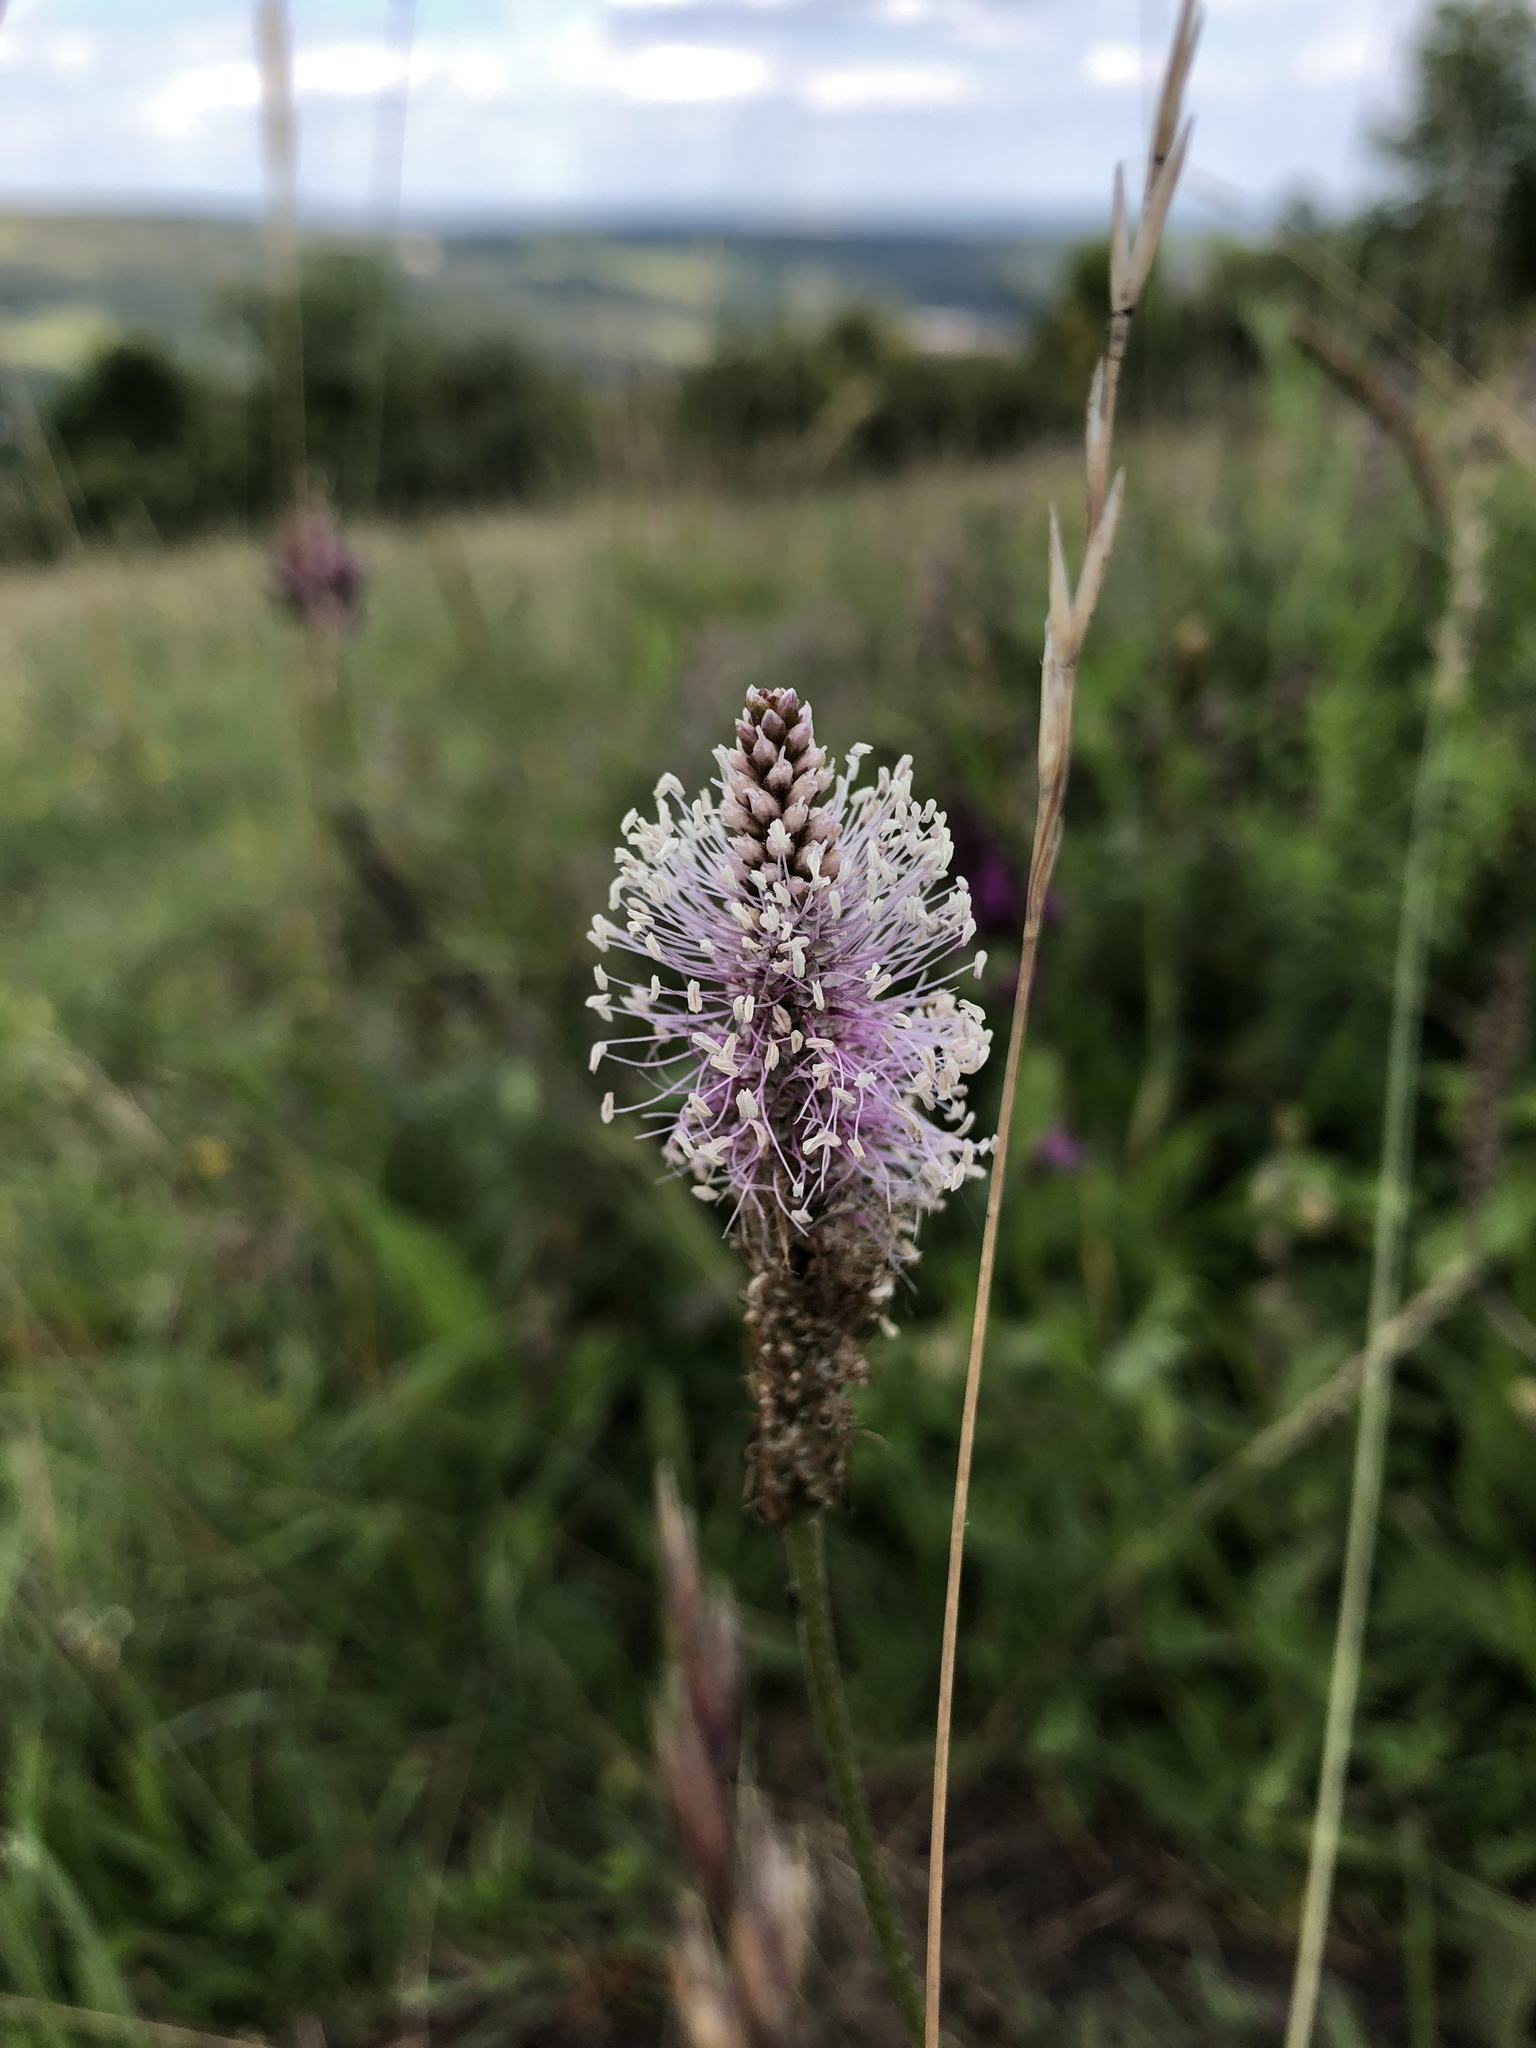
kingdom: Plantae
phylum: Tracheophyta
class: Magnoliopsida
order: Lamiales
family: Plantaginaceae
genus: Plantago
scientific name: Plantago media
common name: Hoary plantain
